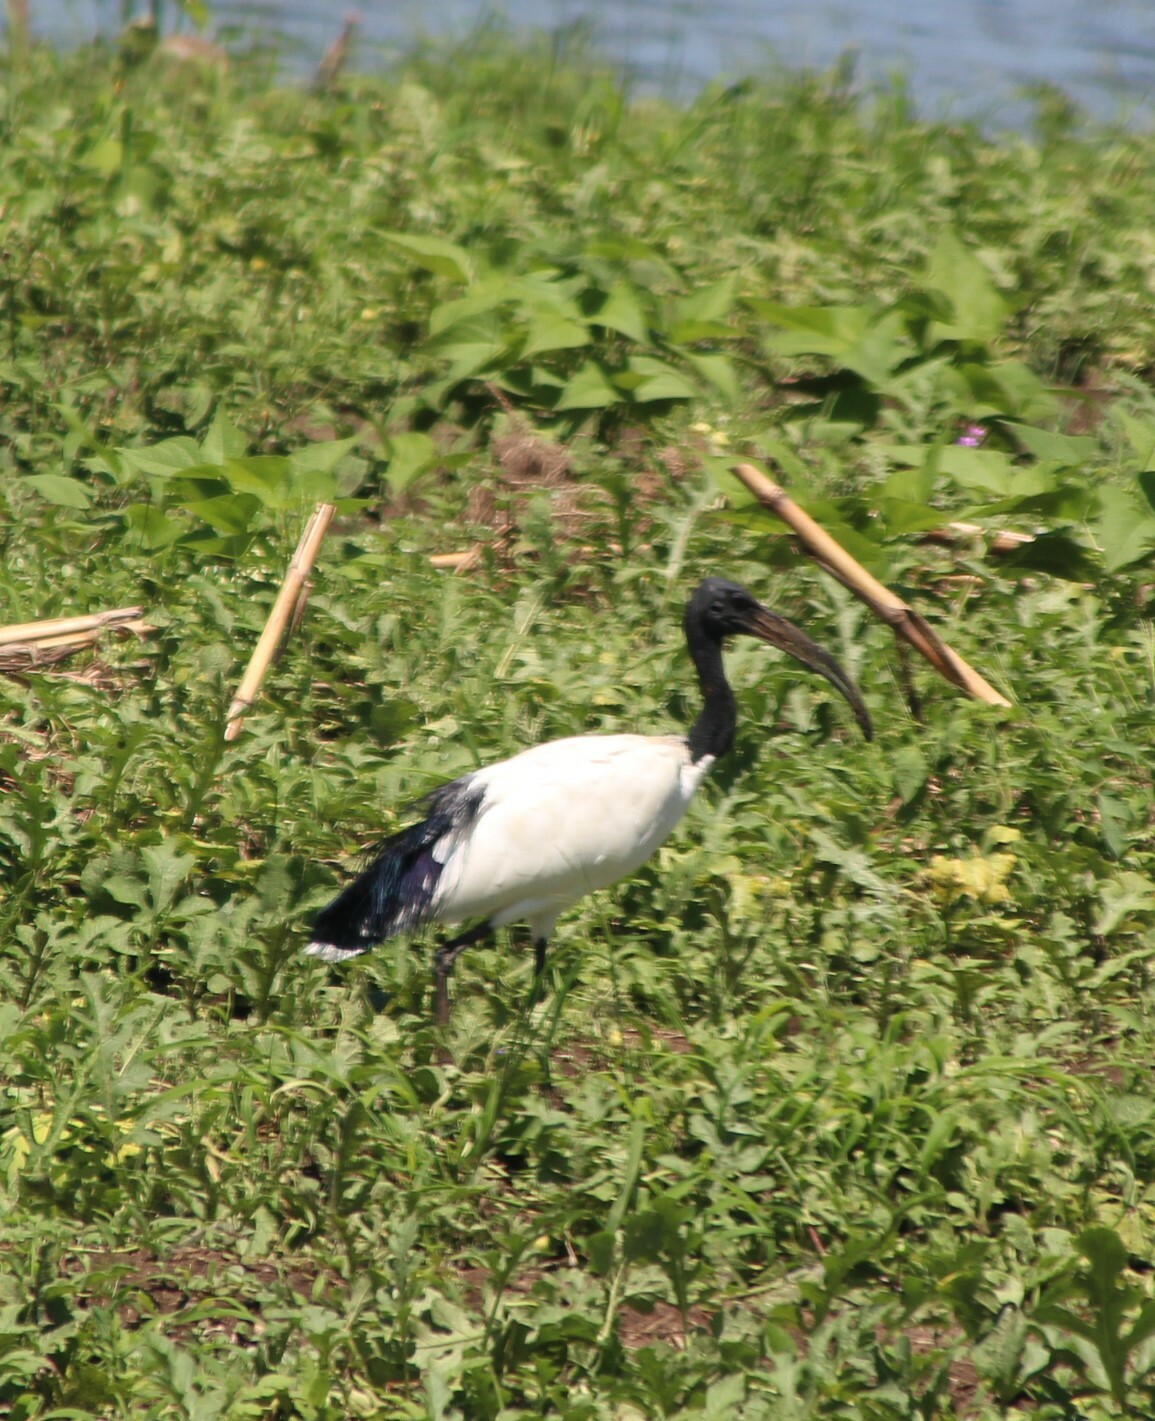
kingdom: Animalia
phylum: Chordata
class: Aves
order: Pelecaniformes
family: Threskiornithidae
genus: Threskiornis
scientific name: Threskiornis aethiopicus
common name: Sacred ibis
